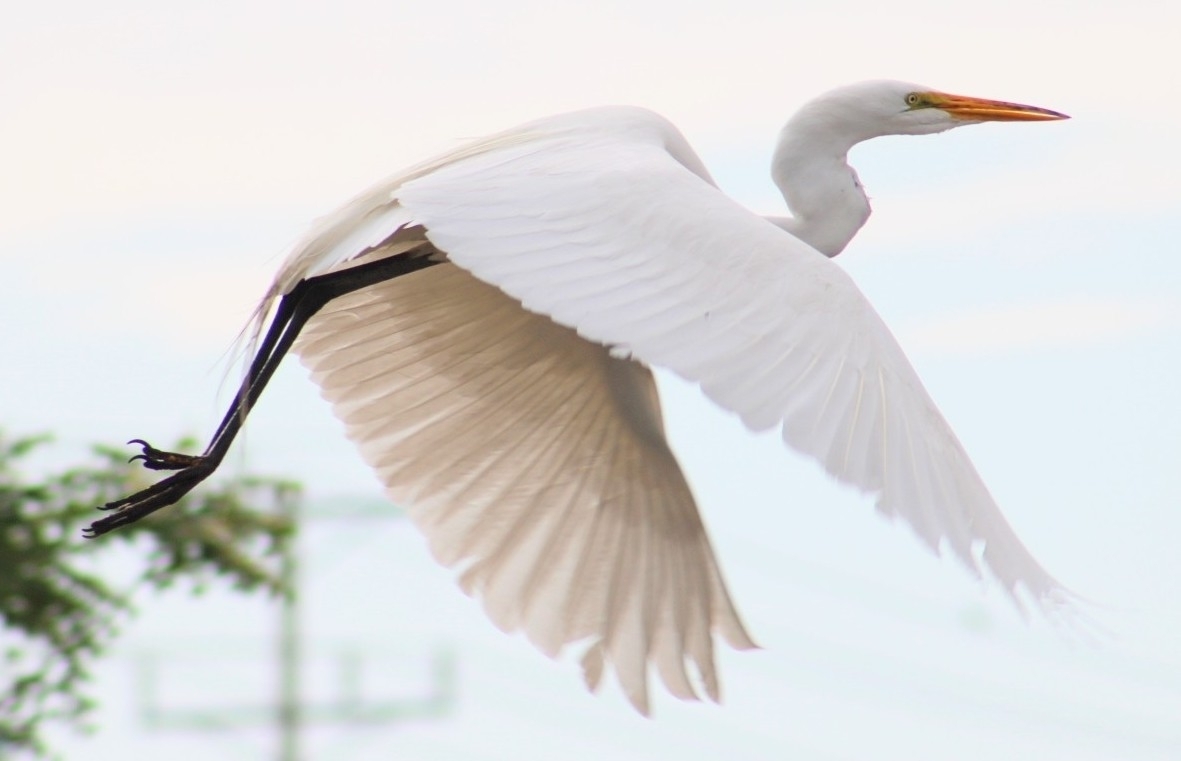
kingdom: Animalia
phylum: Chordata
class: Aves
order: Pelecaniformes
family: Ardeidae
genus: Ardea
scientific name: Ardea alba
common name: Great egret
